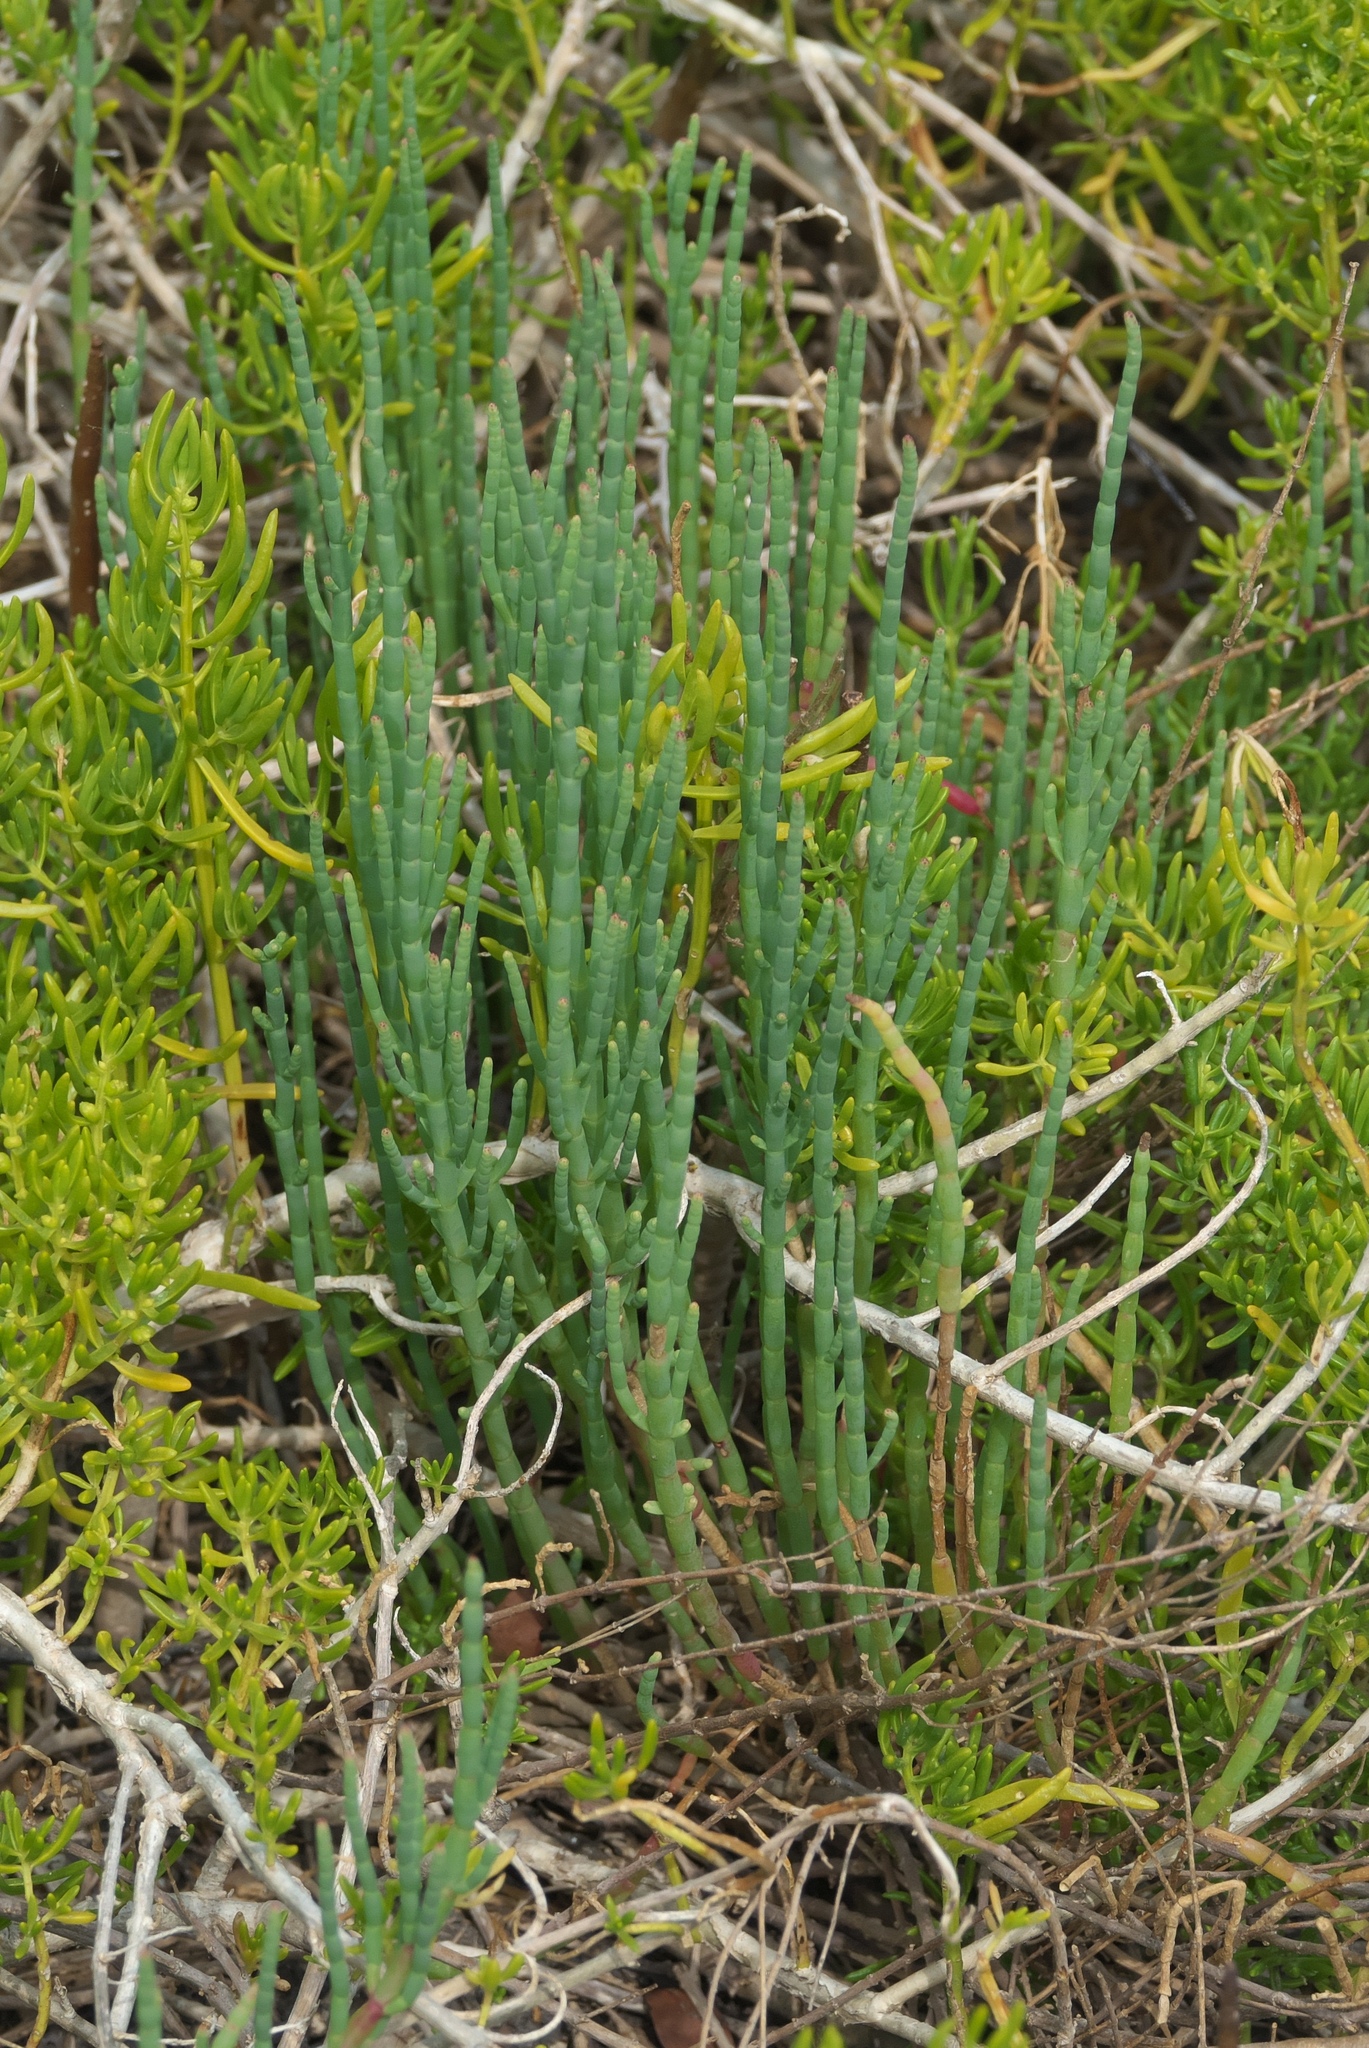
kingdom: Plantae
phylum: Tracheophyta
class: Magnoliopsida
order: Caryophyllales
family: Amaranthaceae
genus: Salicornia
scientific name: Salicornia ambigua
